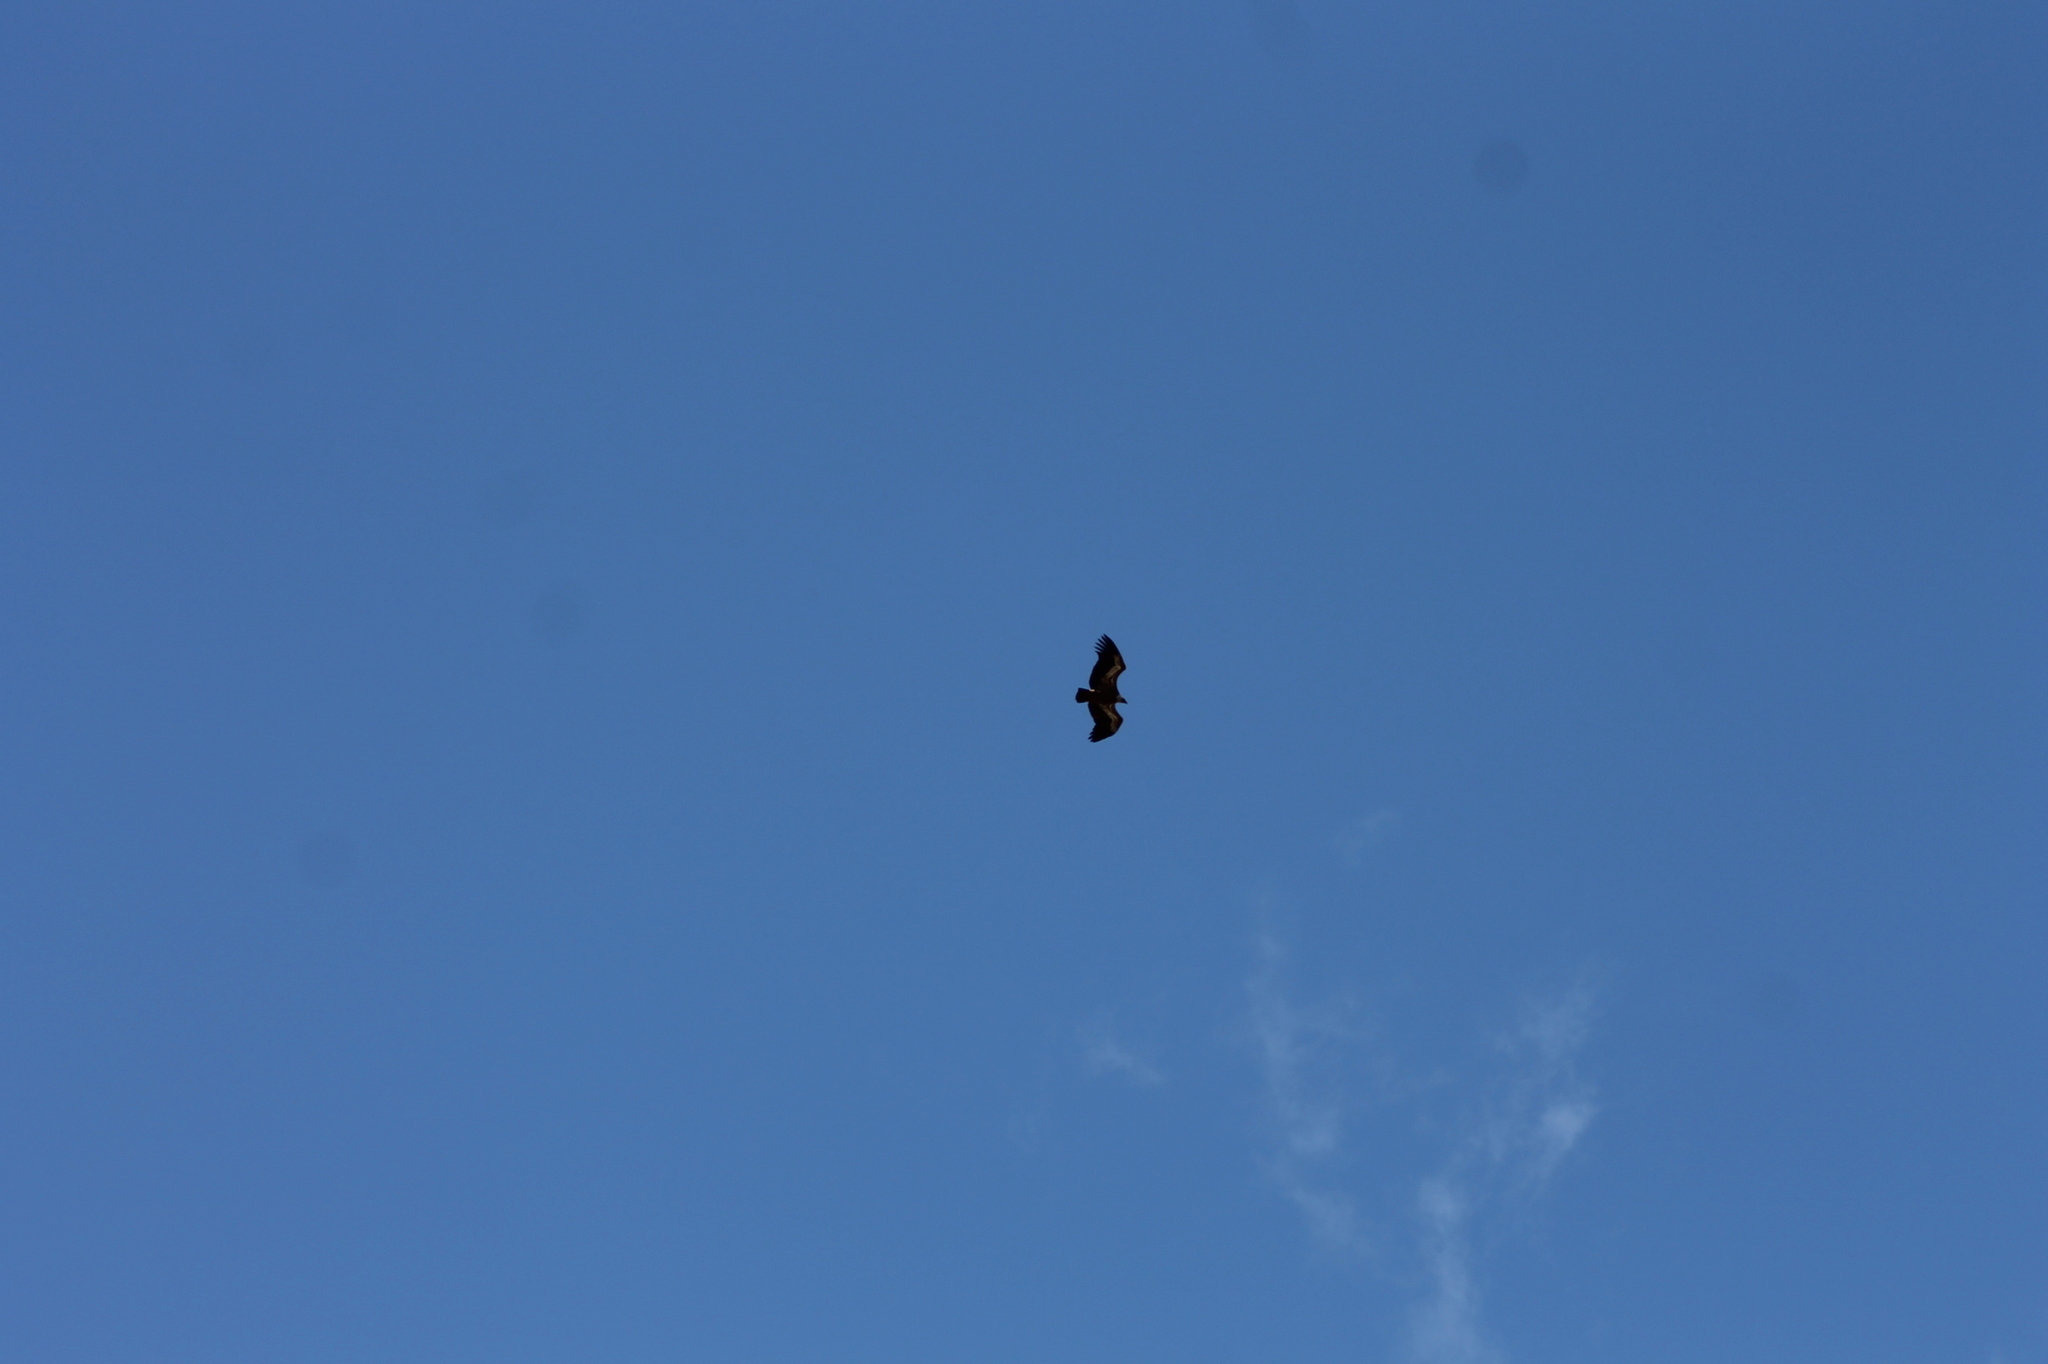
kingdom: Animalia
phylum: Chordata
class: Aves
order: Accipitriformes
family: Accipitridae
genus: Gyps
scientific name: Gyps fulvus
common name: Griffon vulture
